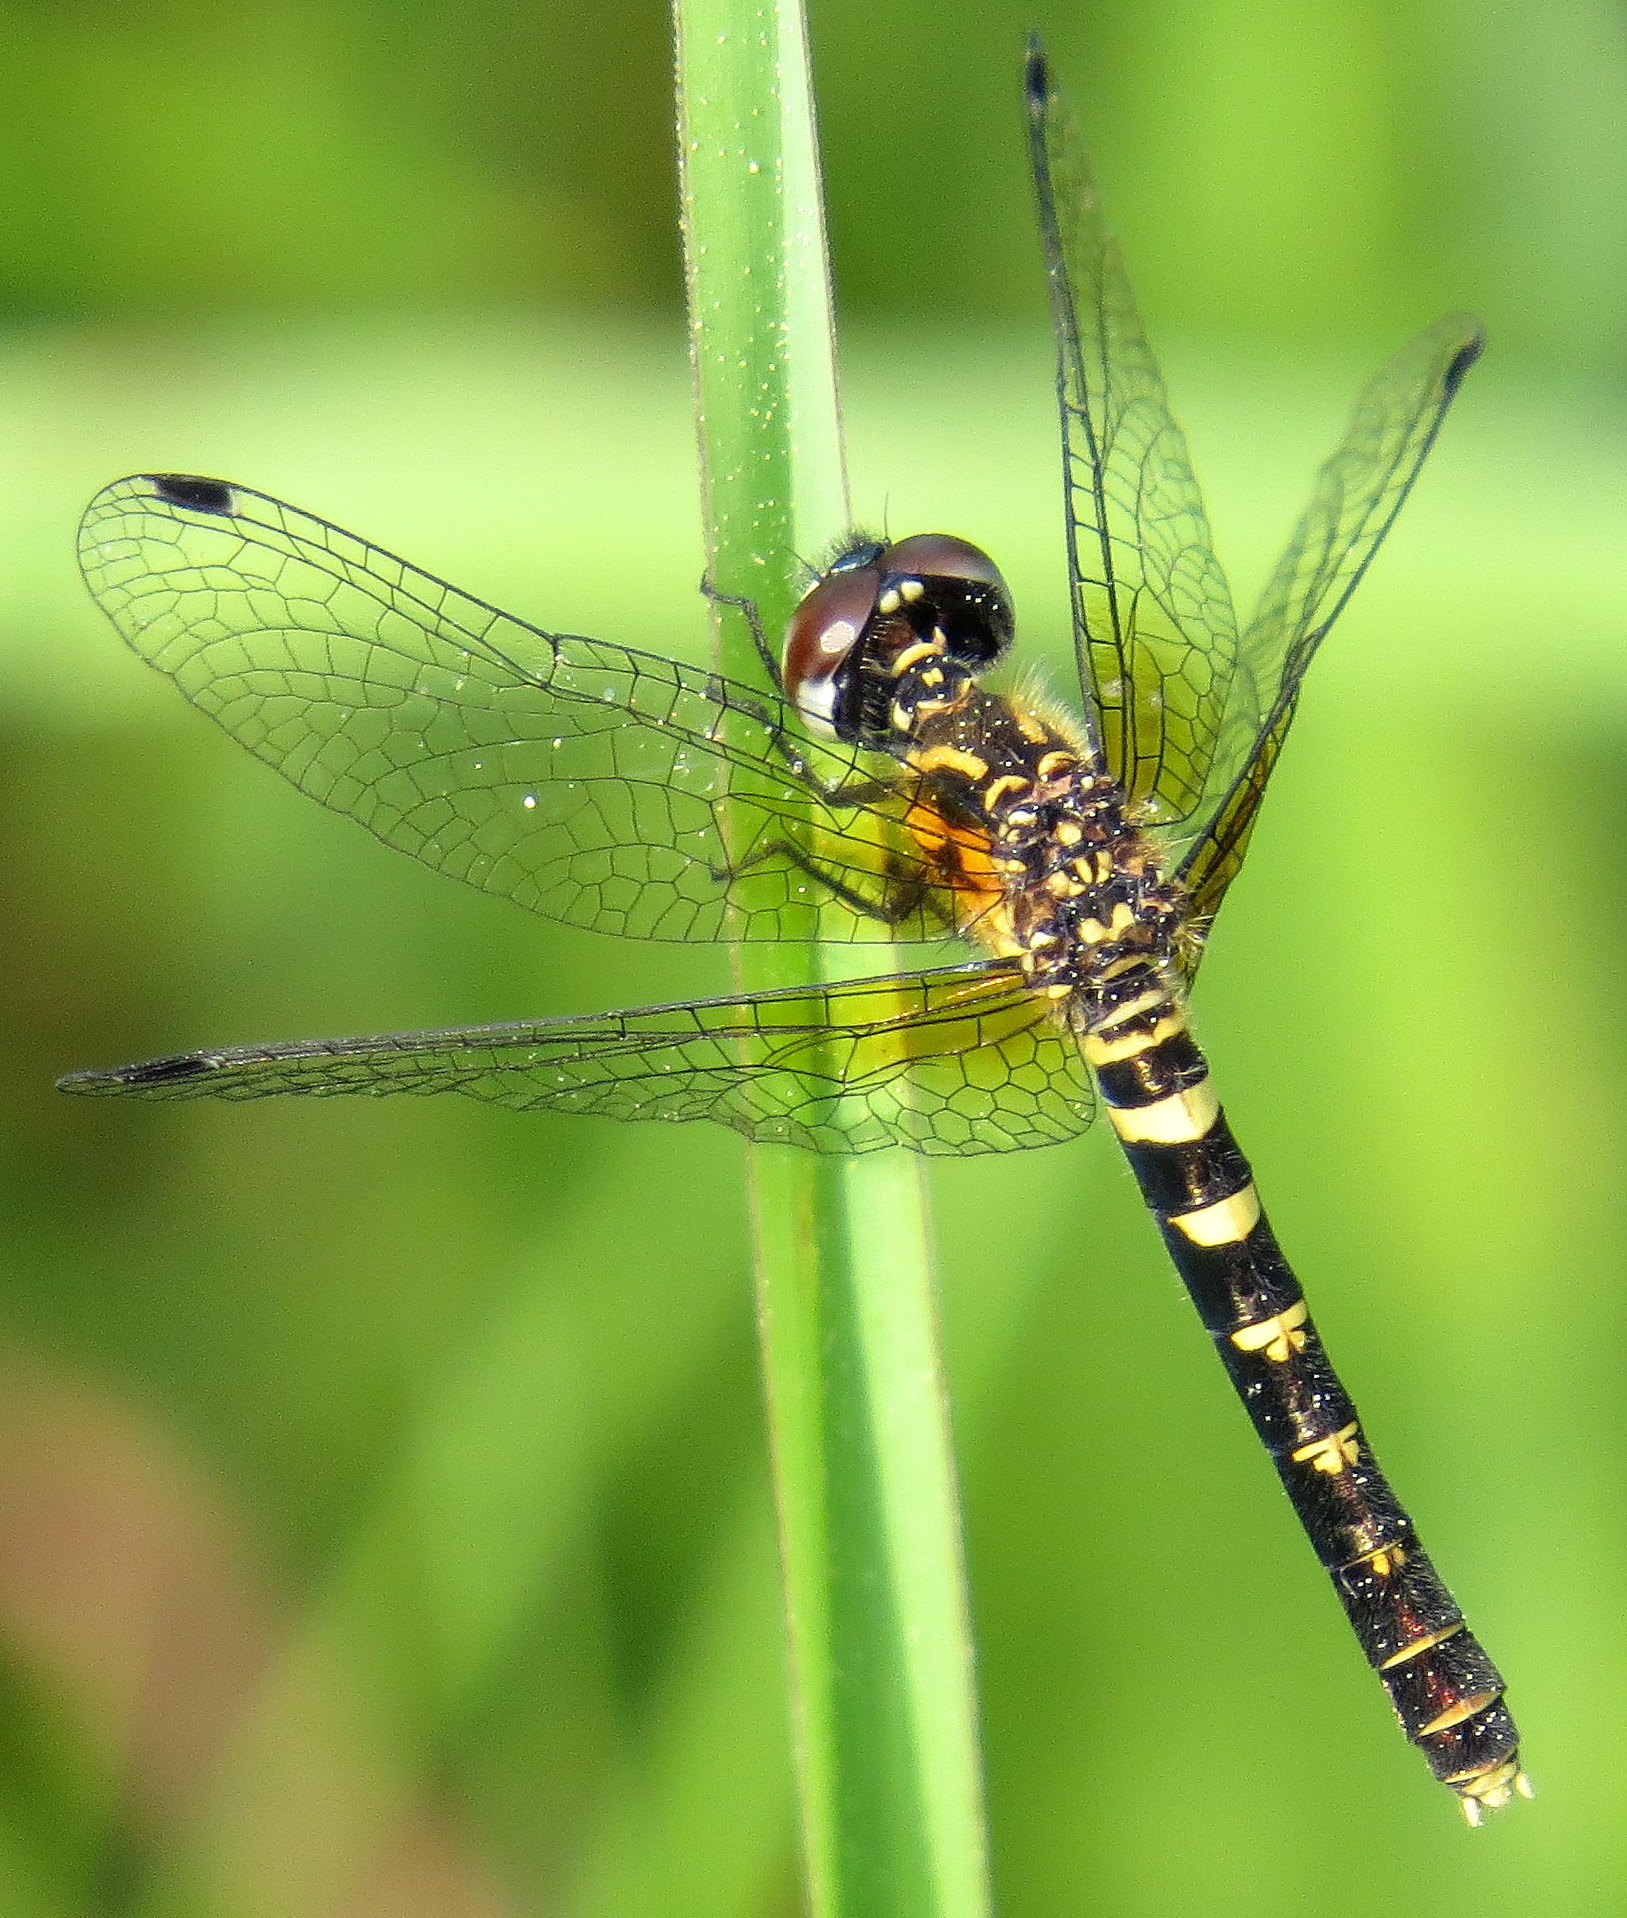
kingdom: Animalia
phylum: Arthropoda
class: Insecta
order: Odonata
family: Libellulidae
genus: Nannothemis
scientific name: Nannothemis bella
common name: Elfin skimmer
